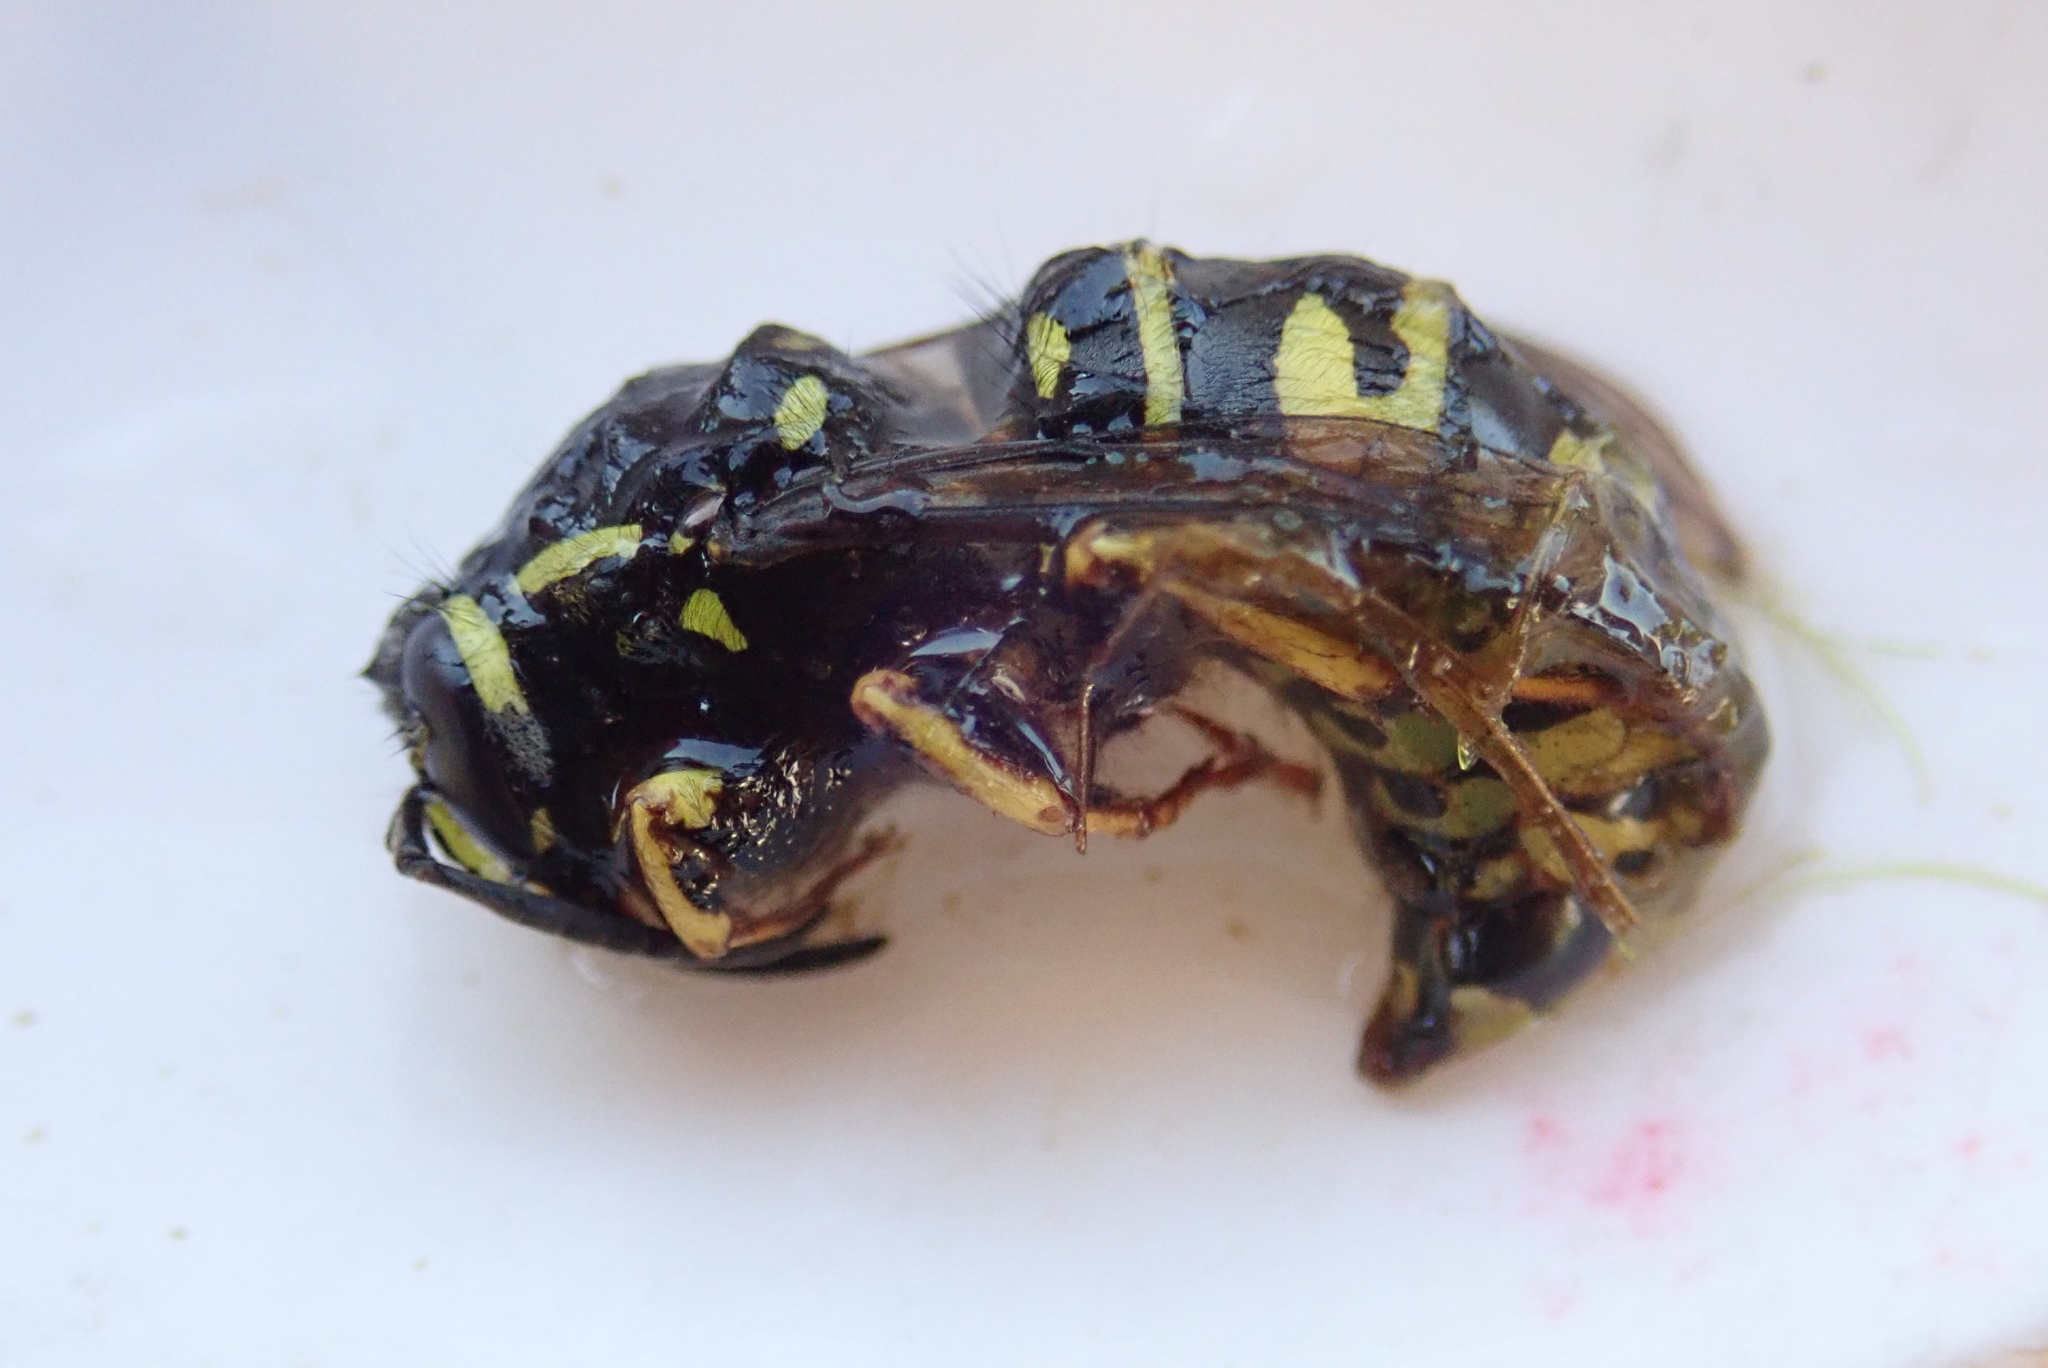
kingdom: Animalia
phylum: Arthropoda
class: Insecta
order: Hymenoptera
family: Vespidae
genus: Vespula
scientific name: Vespula infernalis
